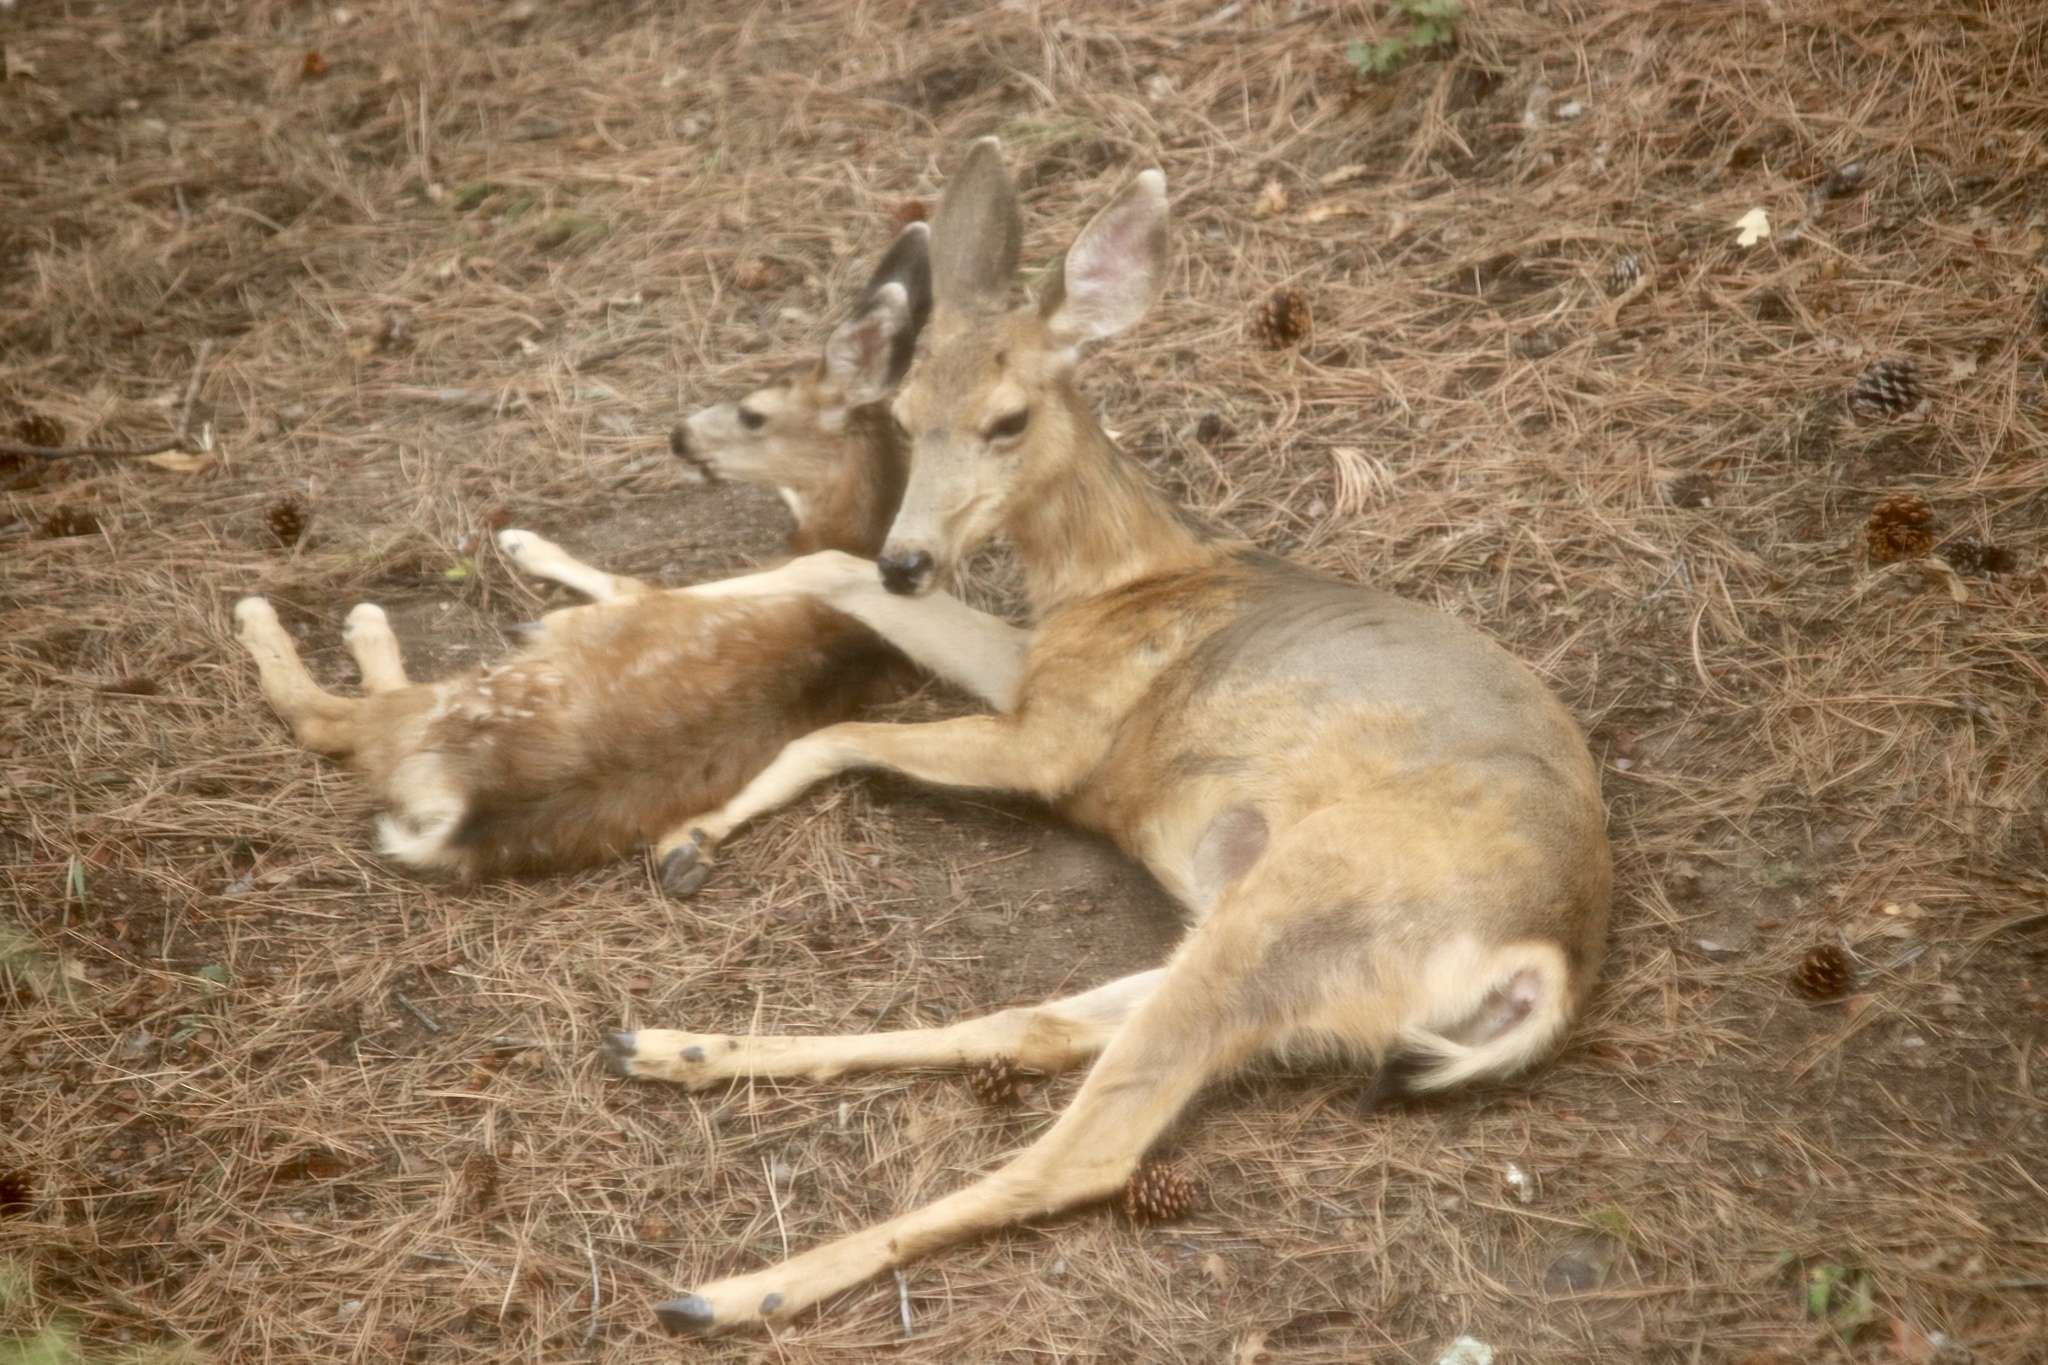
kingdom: Animalia
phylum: Chordata
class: Mammalia
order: Artiodactyla
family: Cervidae
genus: Odocoileus
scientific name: Odocoileus hemionus
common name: Mule deer
